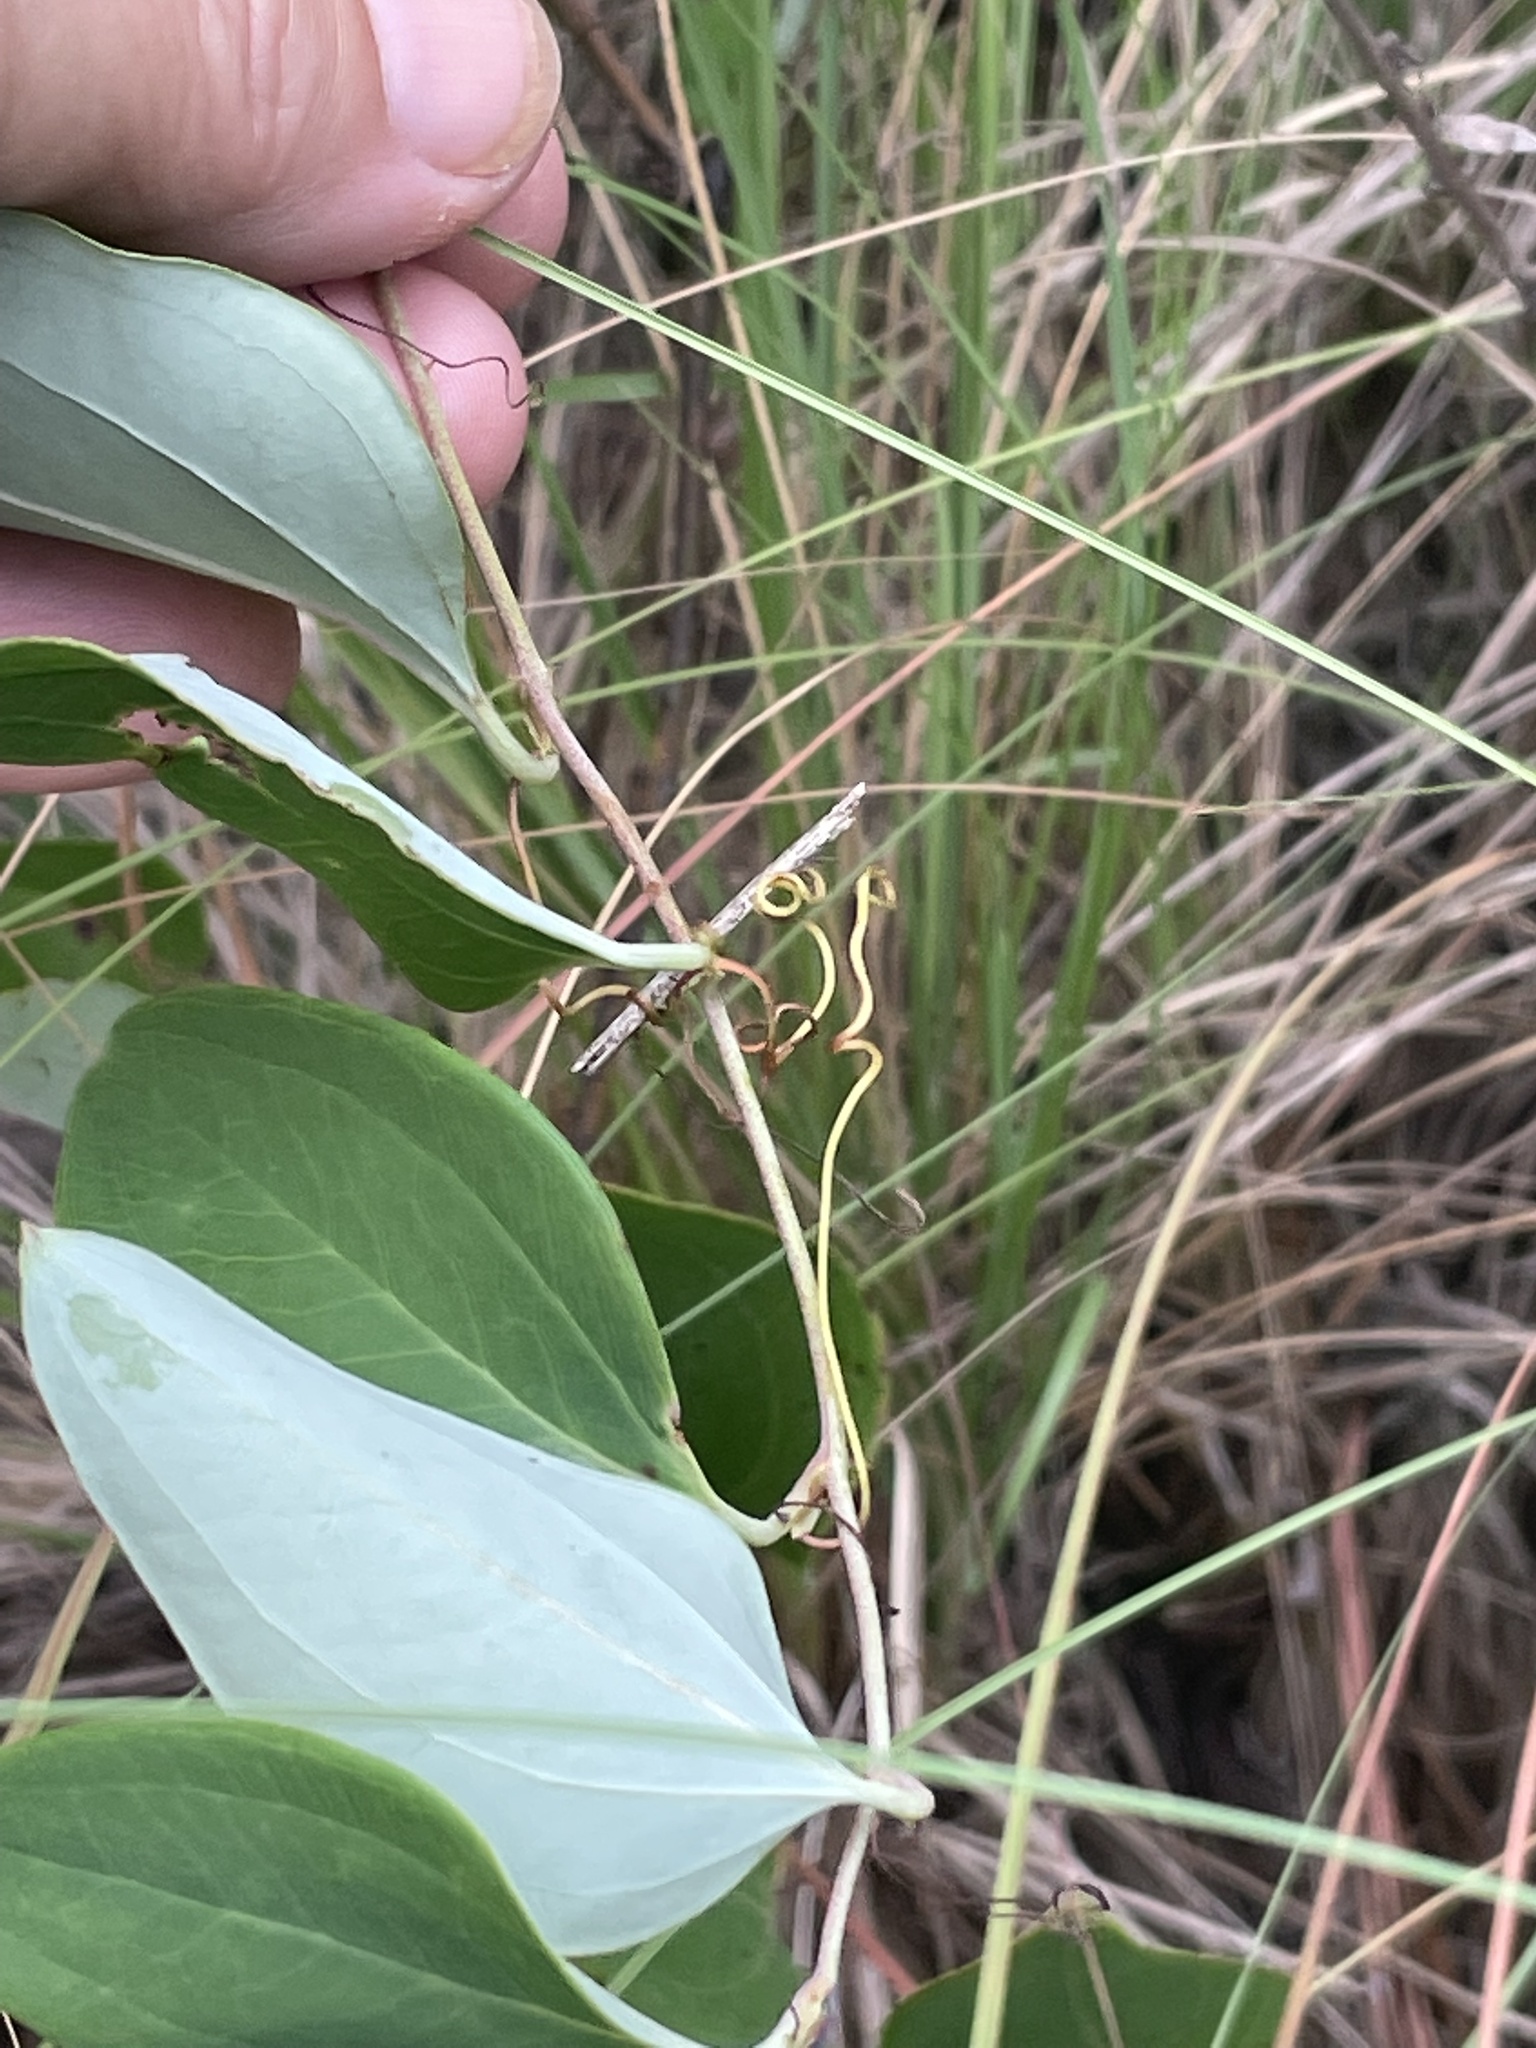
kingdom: Plantae
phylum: Tracheophyta
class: Liliopsida
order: Liliales
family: Smilacaceae
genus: Smilax
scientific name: Smilax glauca
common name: Cat greenbrier
